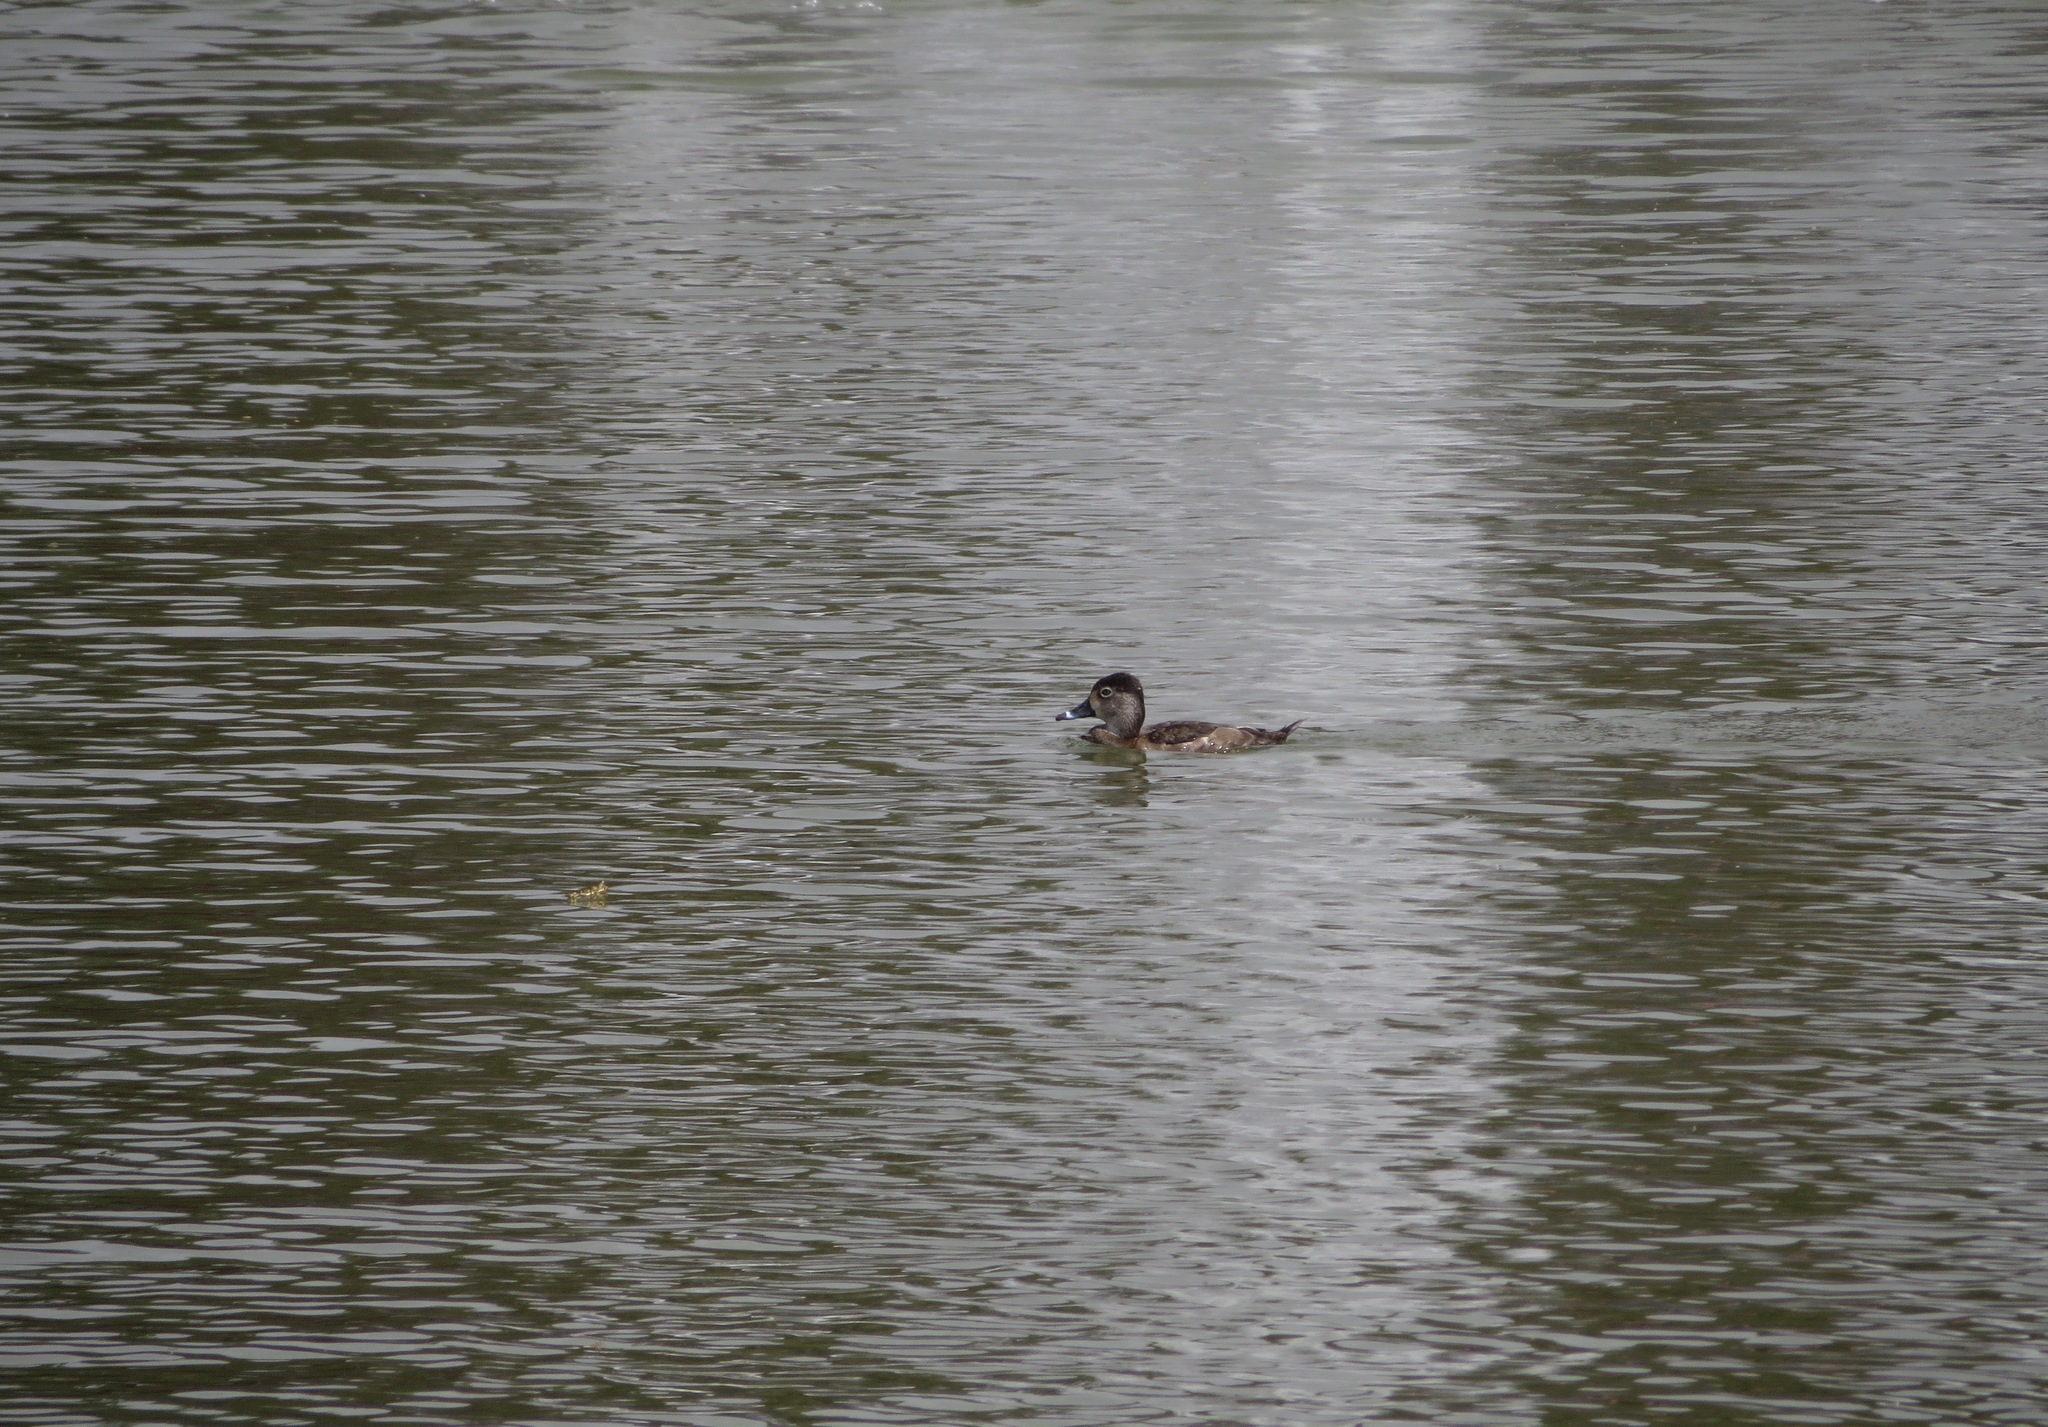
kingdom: Animalia
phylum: Chordata
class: Aves
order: Anseriformes
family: Anatidae
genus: Aythya
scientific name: Aythya collaris
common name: Ring-necked duck
